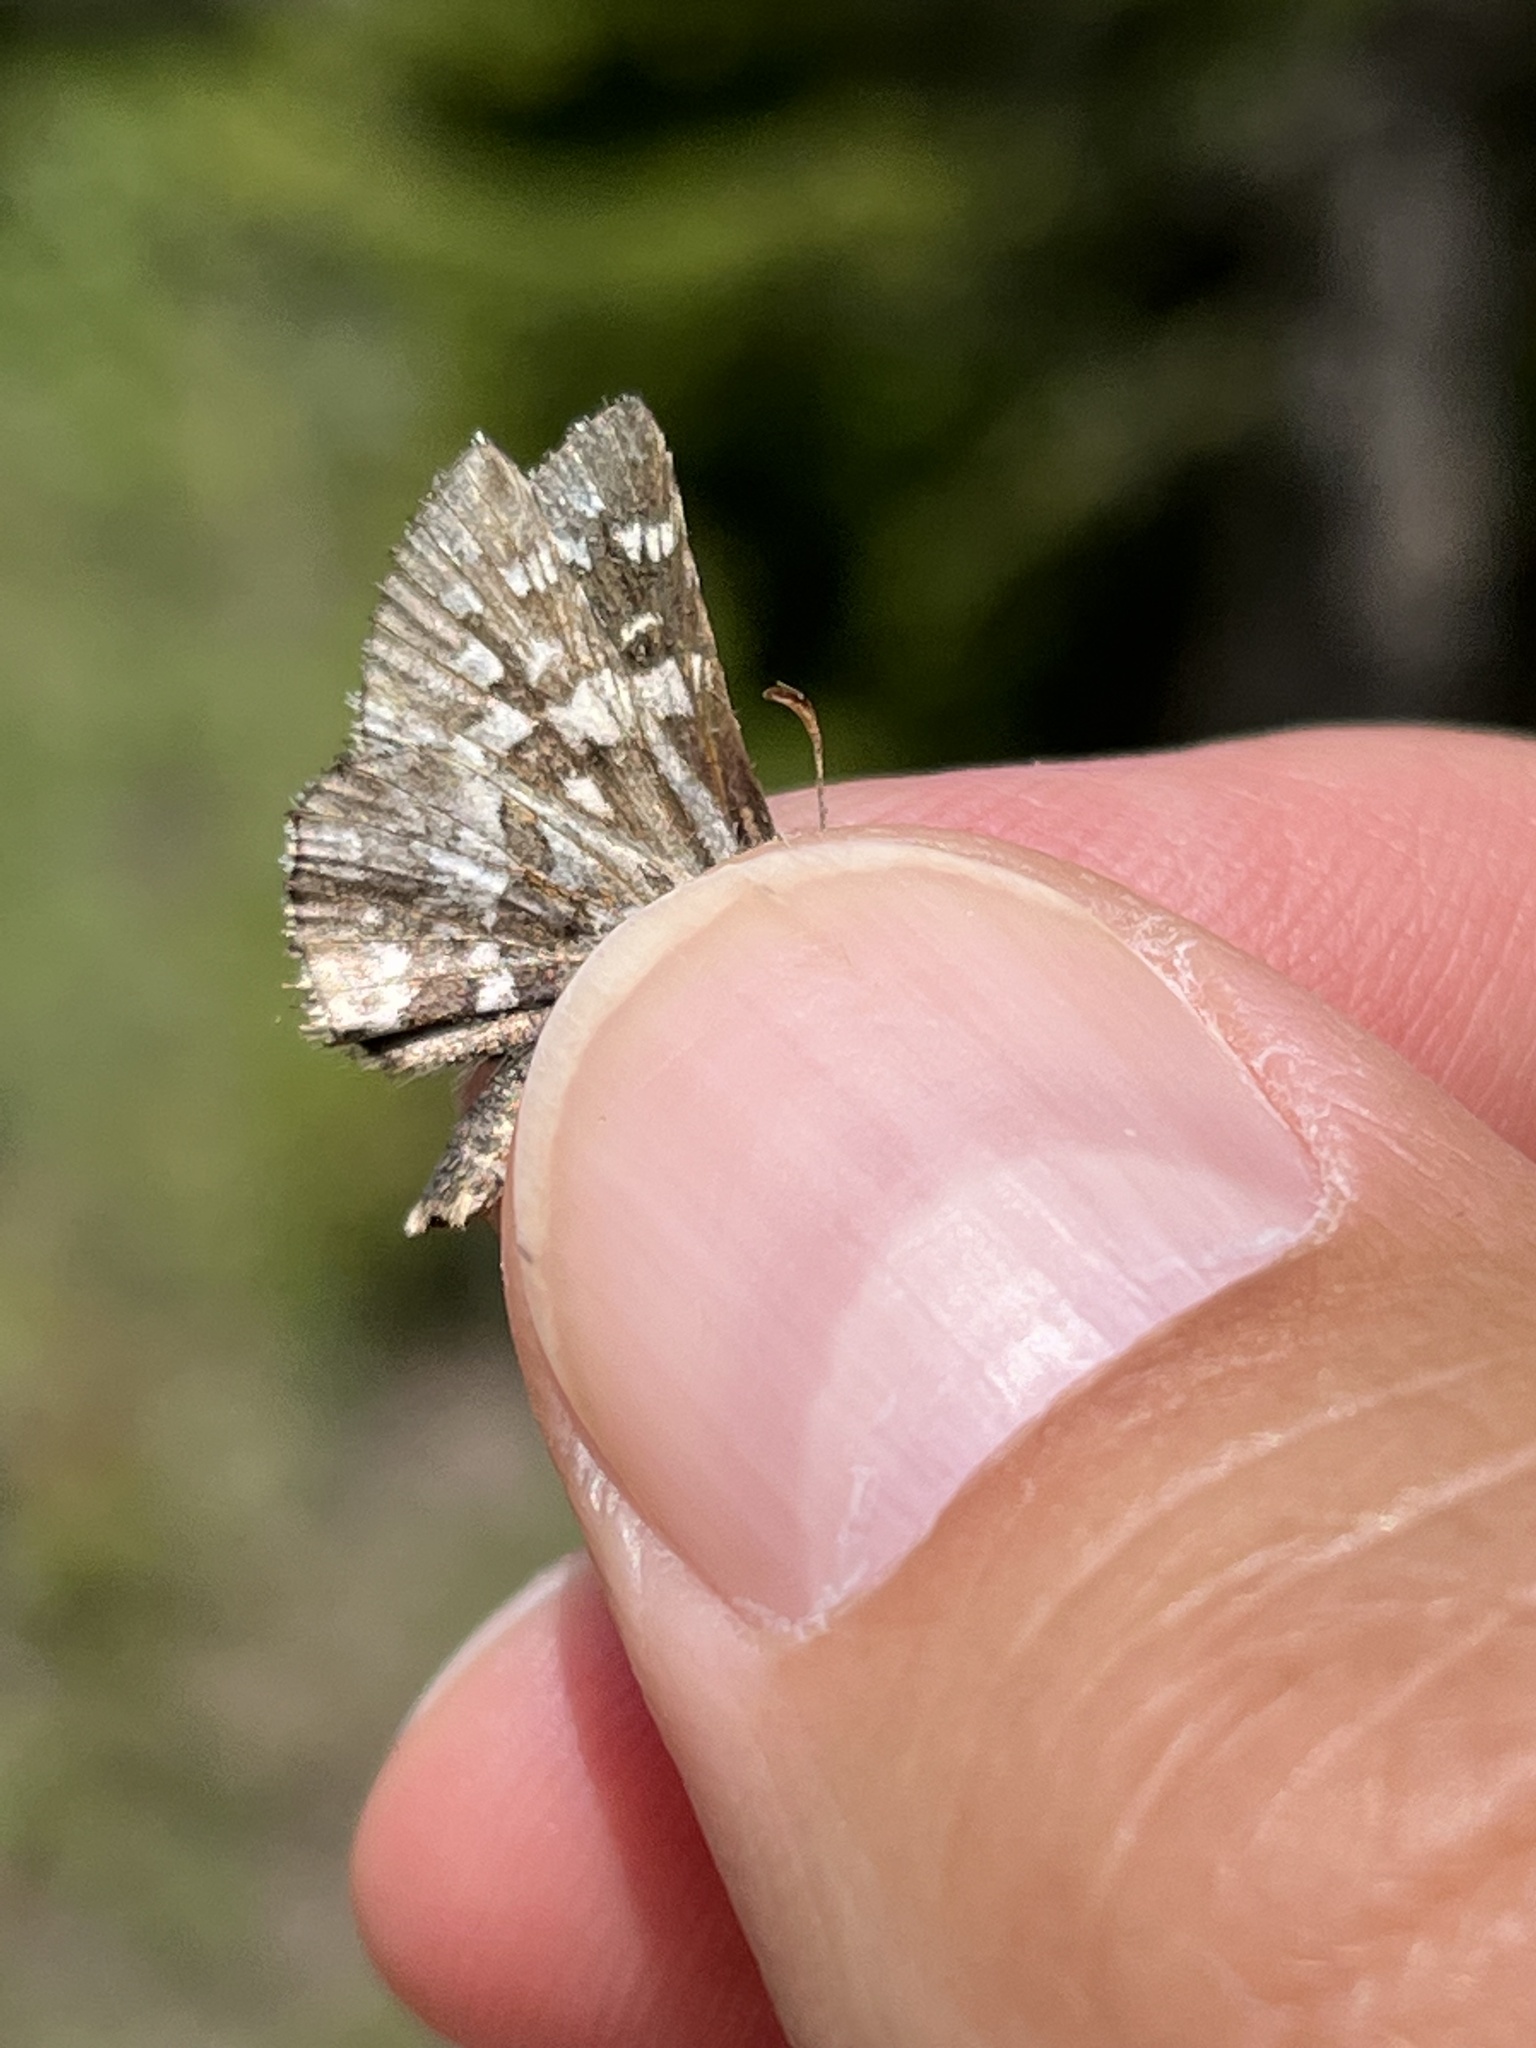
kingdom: Animalia
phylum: Arthropoda
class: Insecta
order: Lepidoptera
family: Hesperiidae
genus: Pyrgus
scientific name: Pyrgus ruralis
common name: Two-banded checkered-skipper
